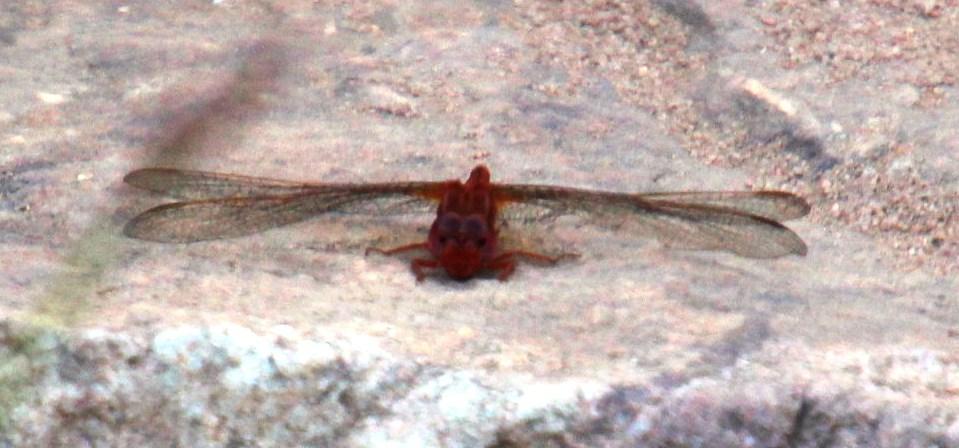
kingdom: Animalia
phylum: Arthropoda
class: Insecta
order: Odonata
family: Libellulidae
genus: Crocothemis
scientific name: Crocothemis sanguinolenta
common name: Little scarlet
